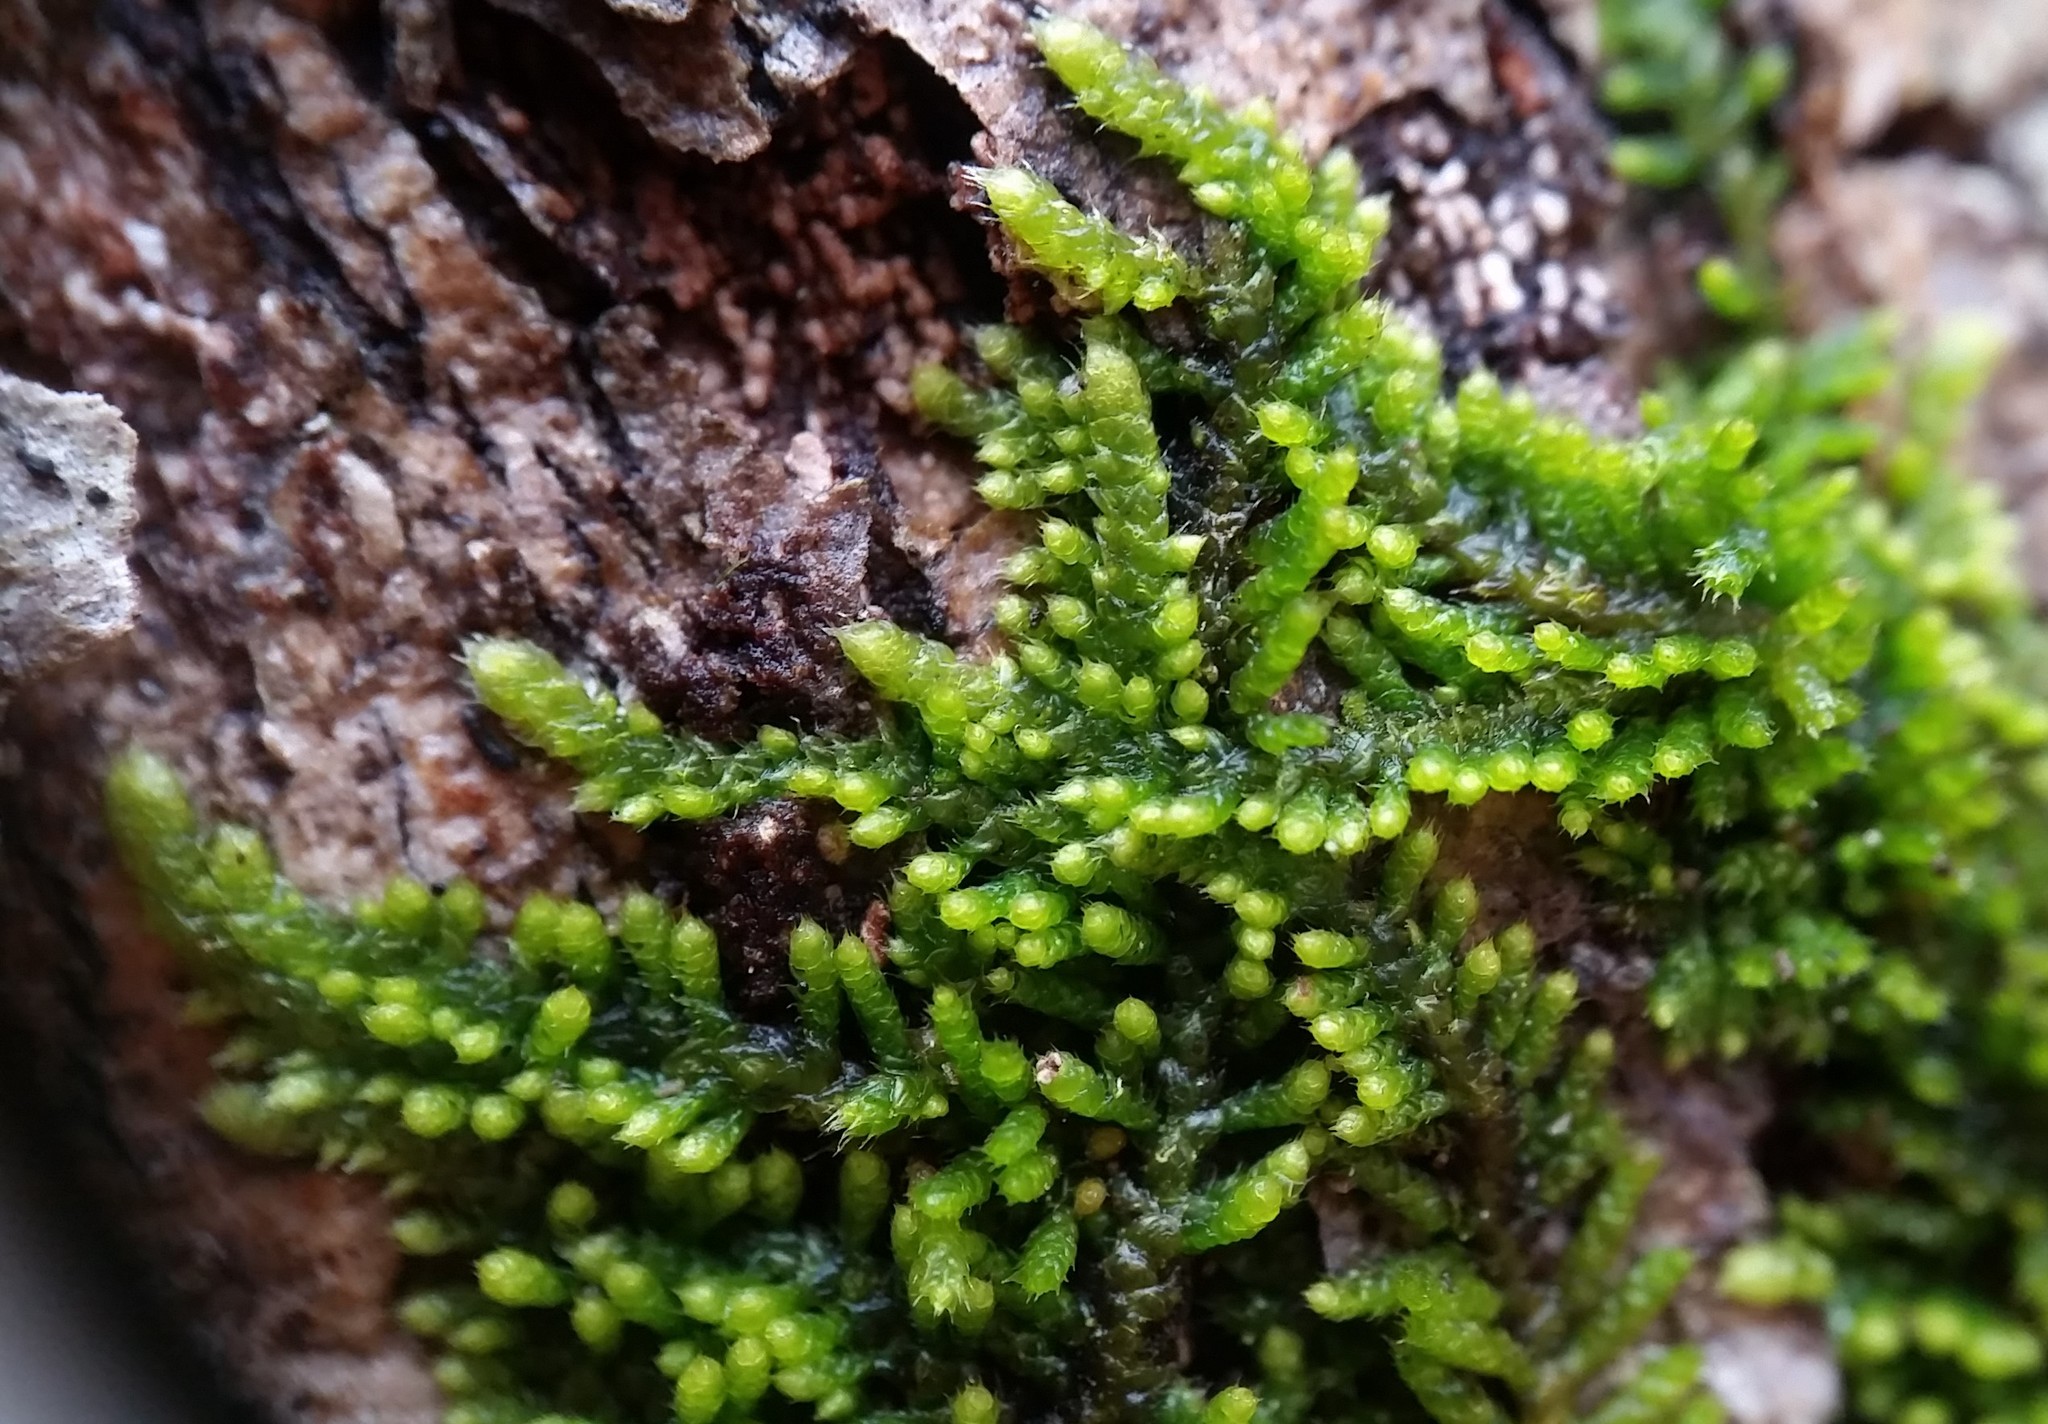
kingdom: Plantae
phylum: Bryophyta
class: Bryopsida
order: Hypnales
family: Theliaceae
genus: Thelia
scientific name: Thelia hirtella
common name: Common thelia
